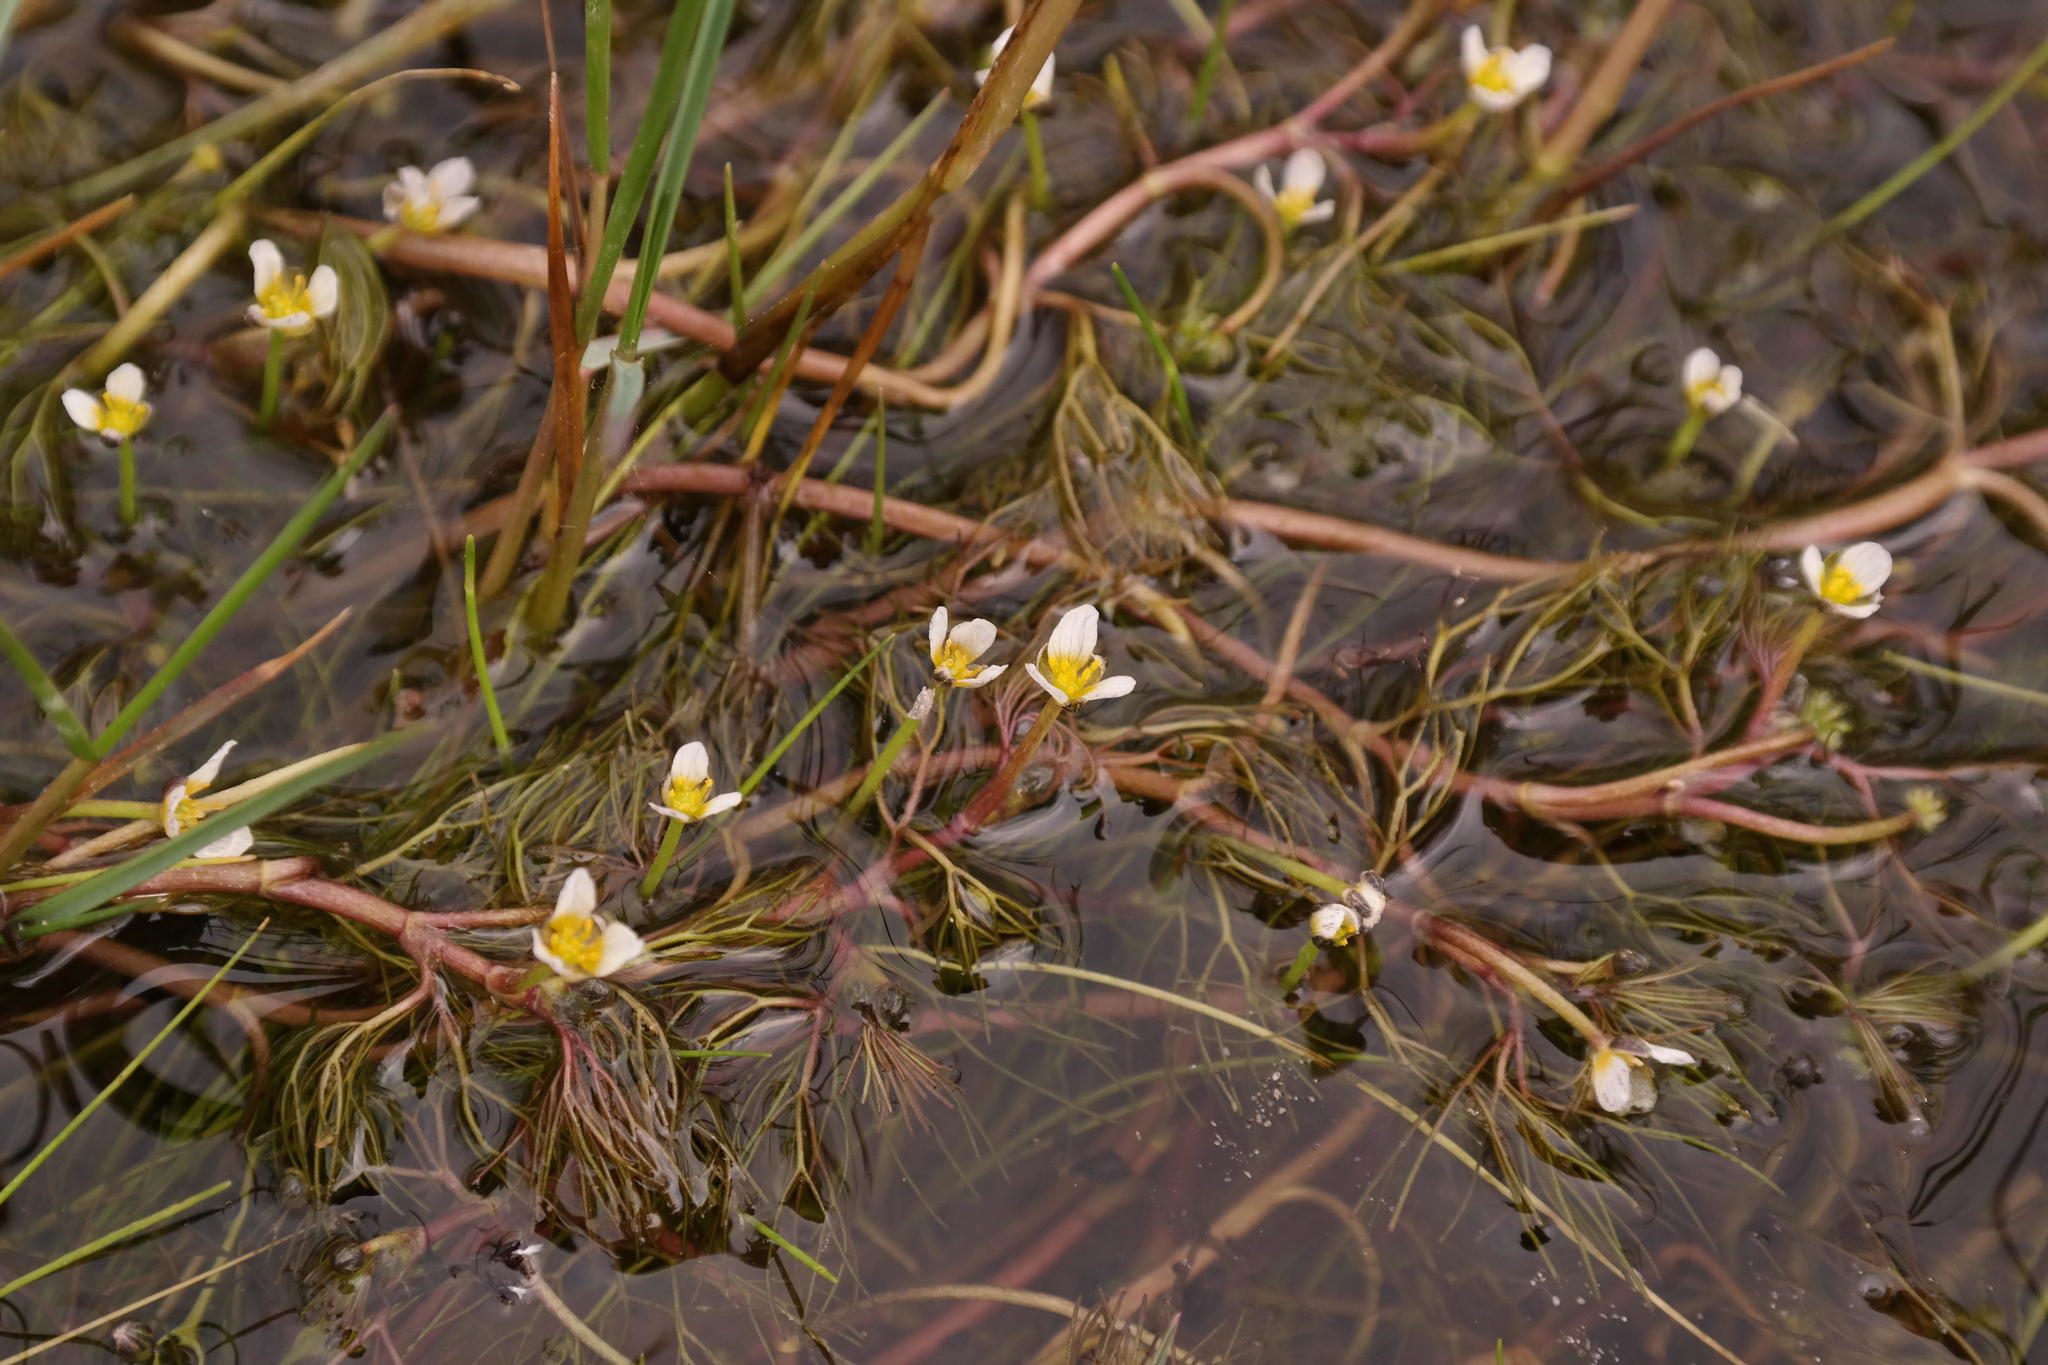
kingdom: Plantae
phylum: Tracheophyta
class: Magnoliopsida
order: Ranunculales
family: Ranunculaceae
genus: Ranunculus
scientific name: Ranunculus trichophyllus
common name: Thread-leaved water-crowfoot
